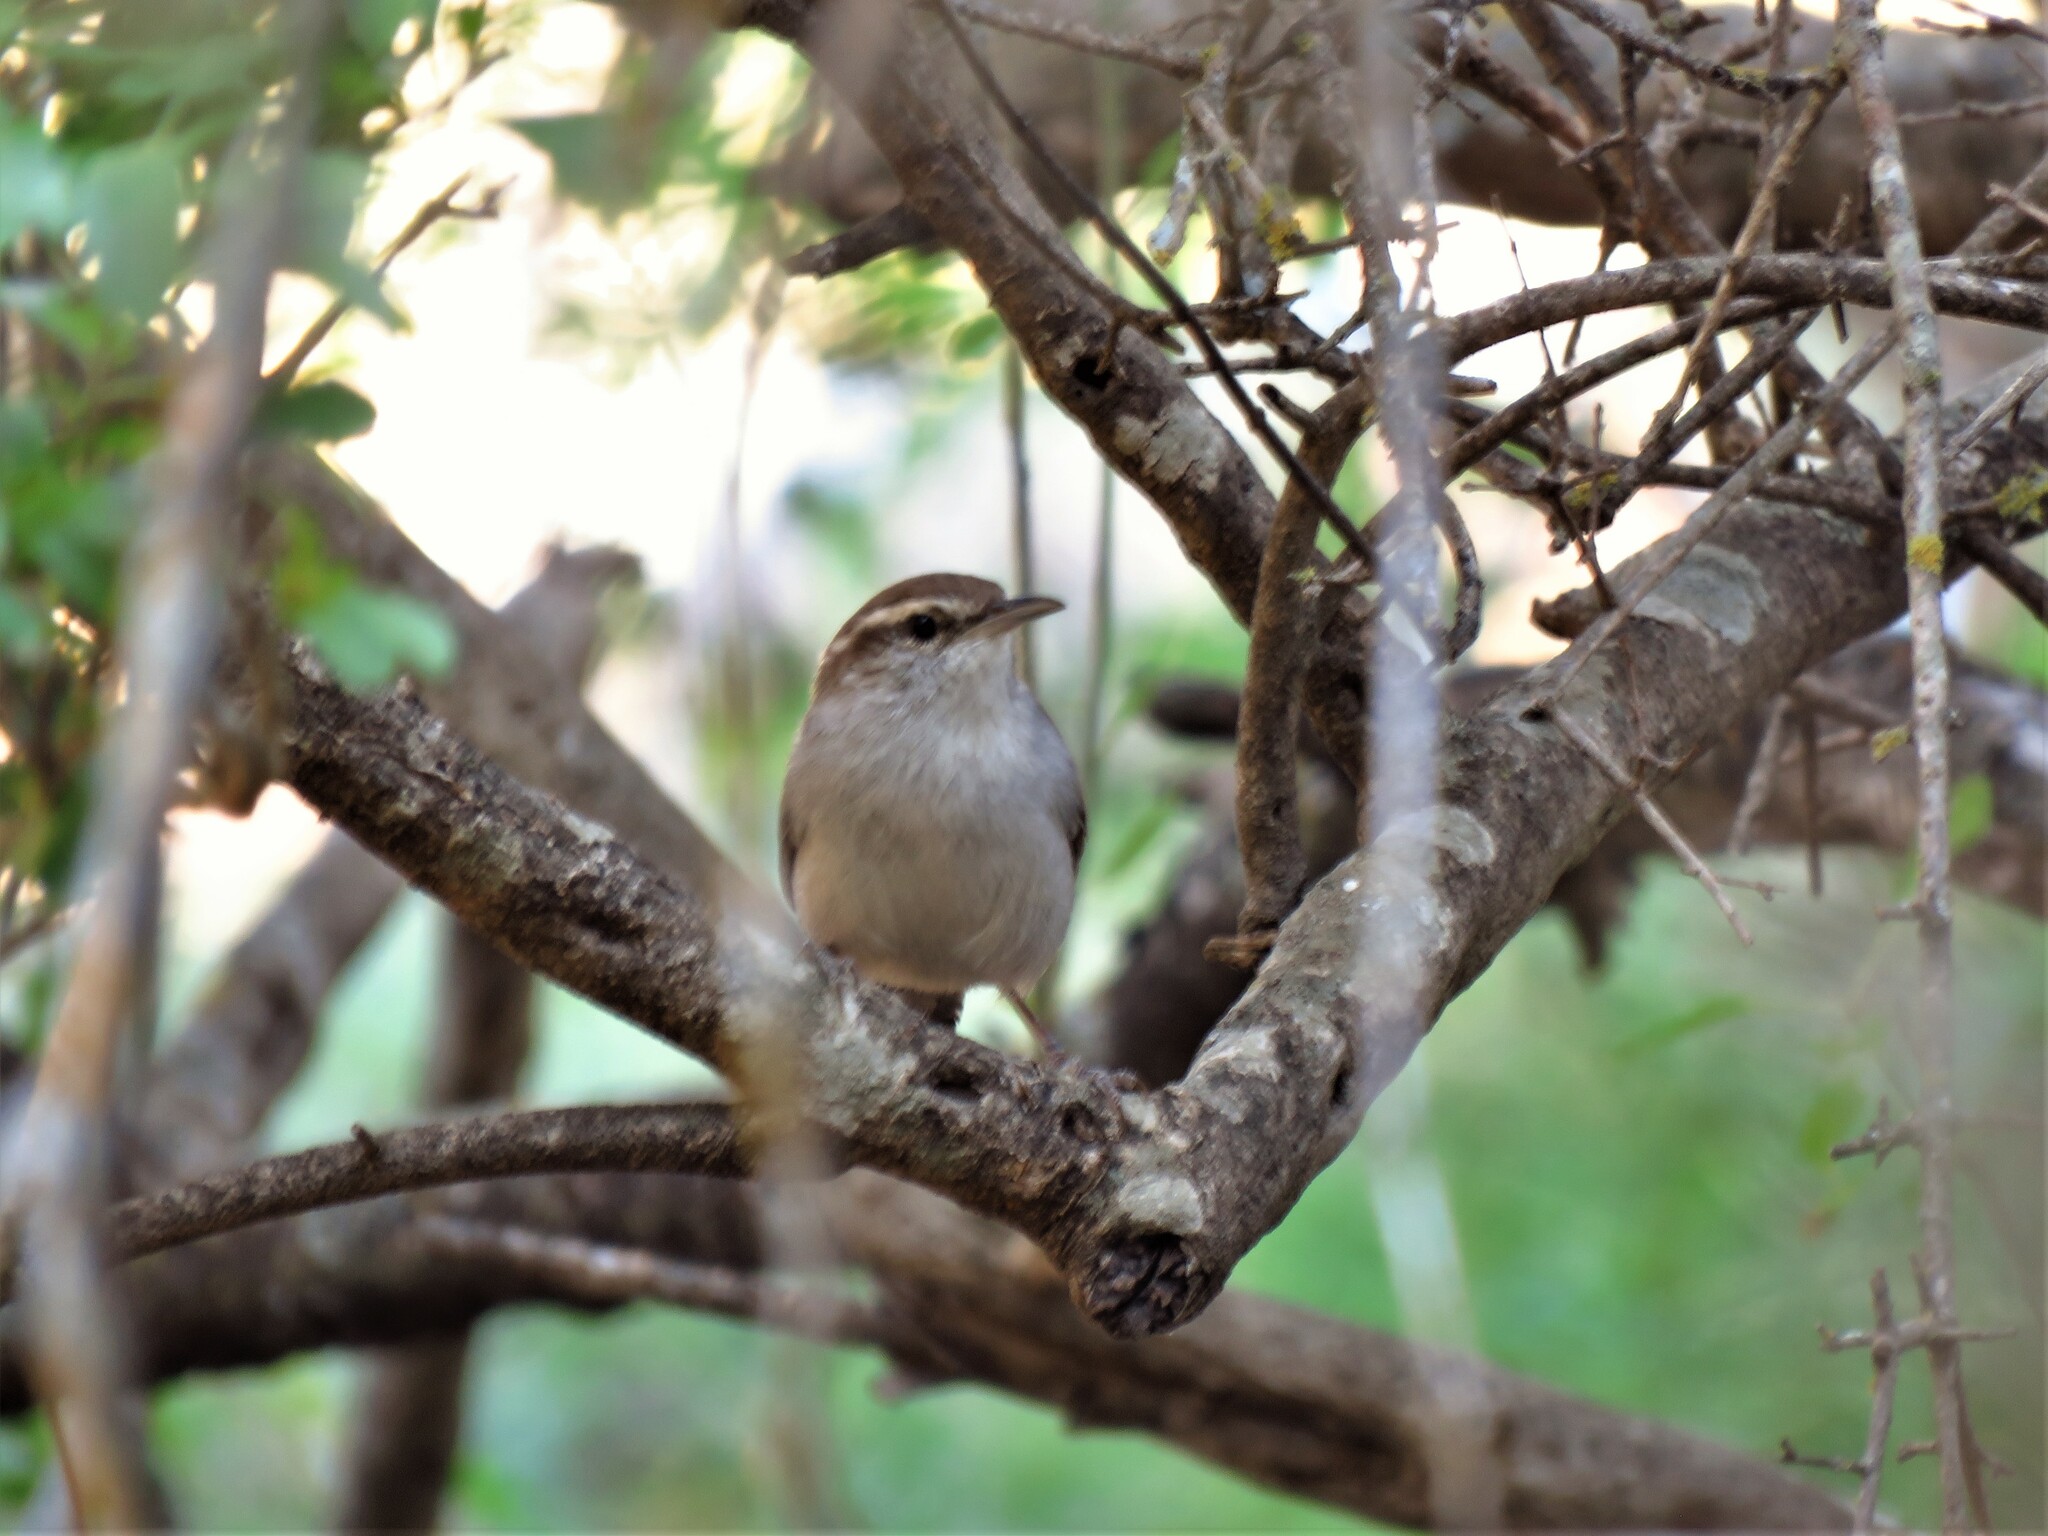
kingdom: Animalia
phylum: Chordata
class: Aves
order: Passeriformes
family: Troglodytidae
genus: Thryomanes
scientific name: Thryomanes bewickii
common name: Bewick's wren
